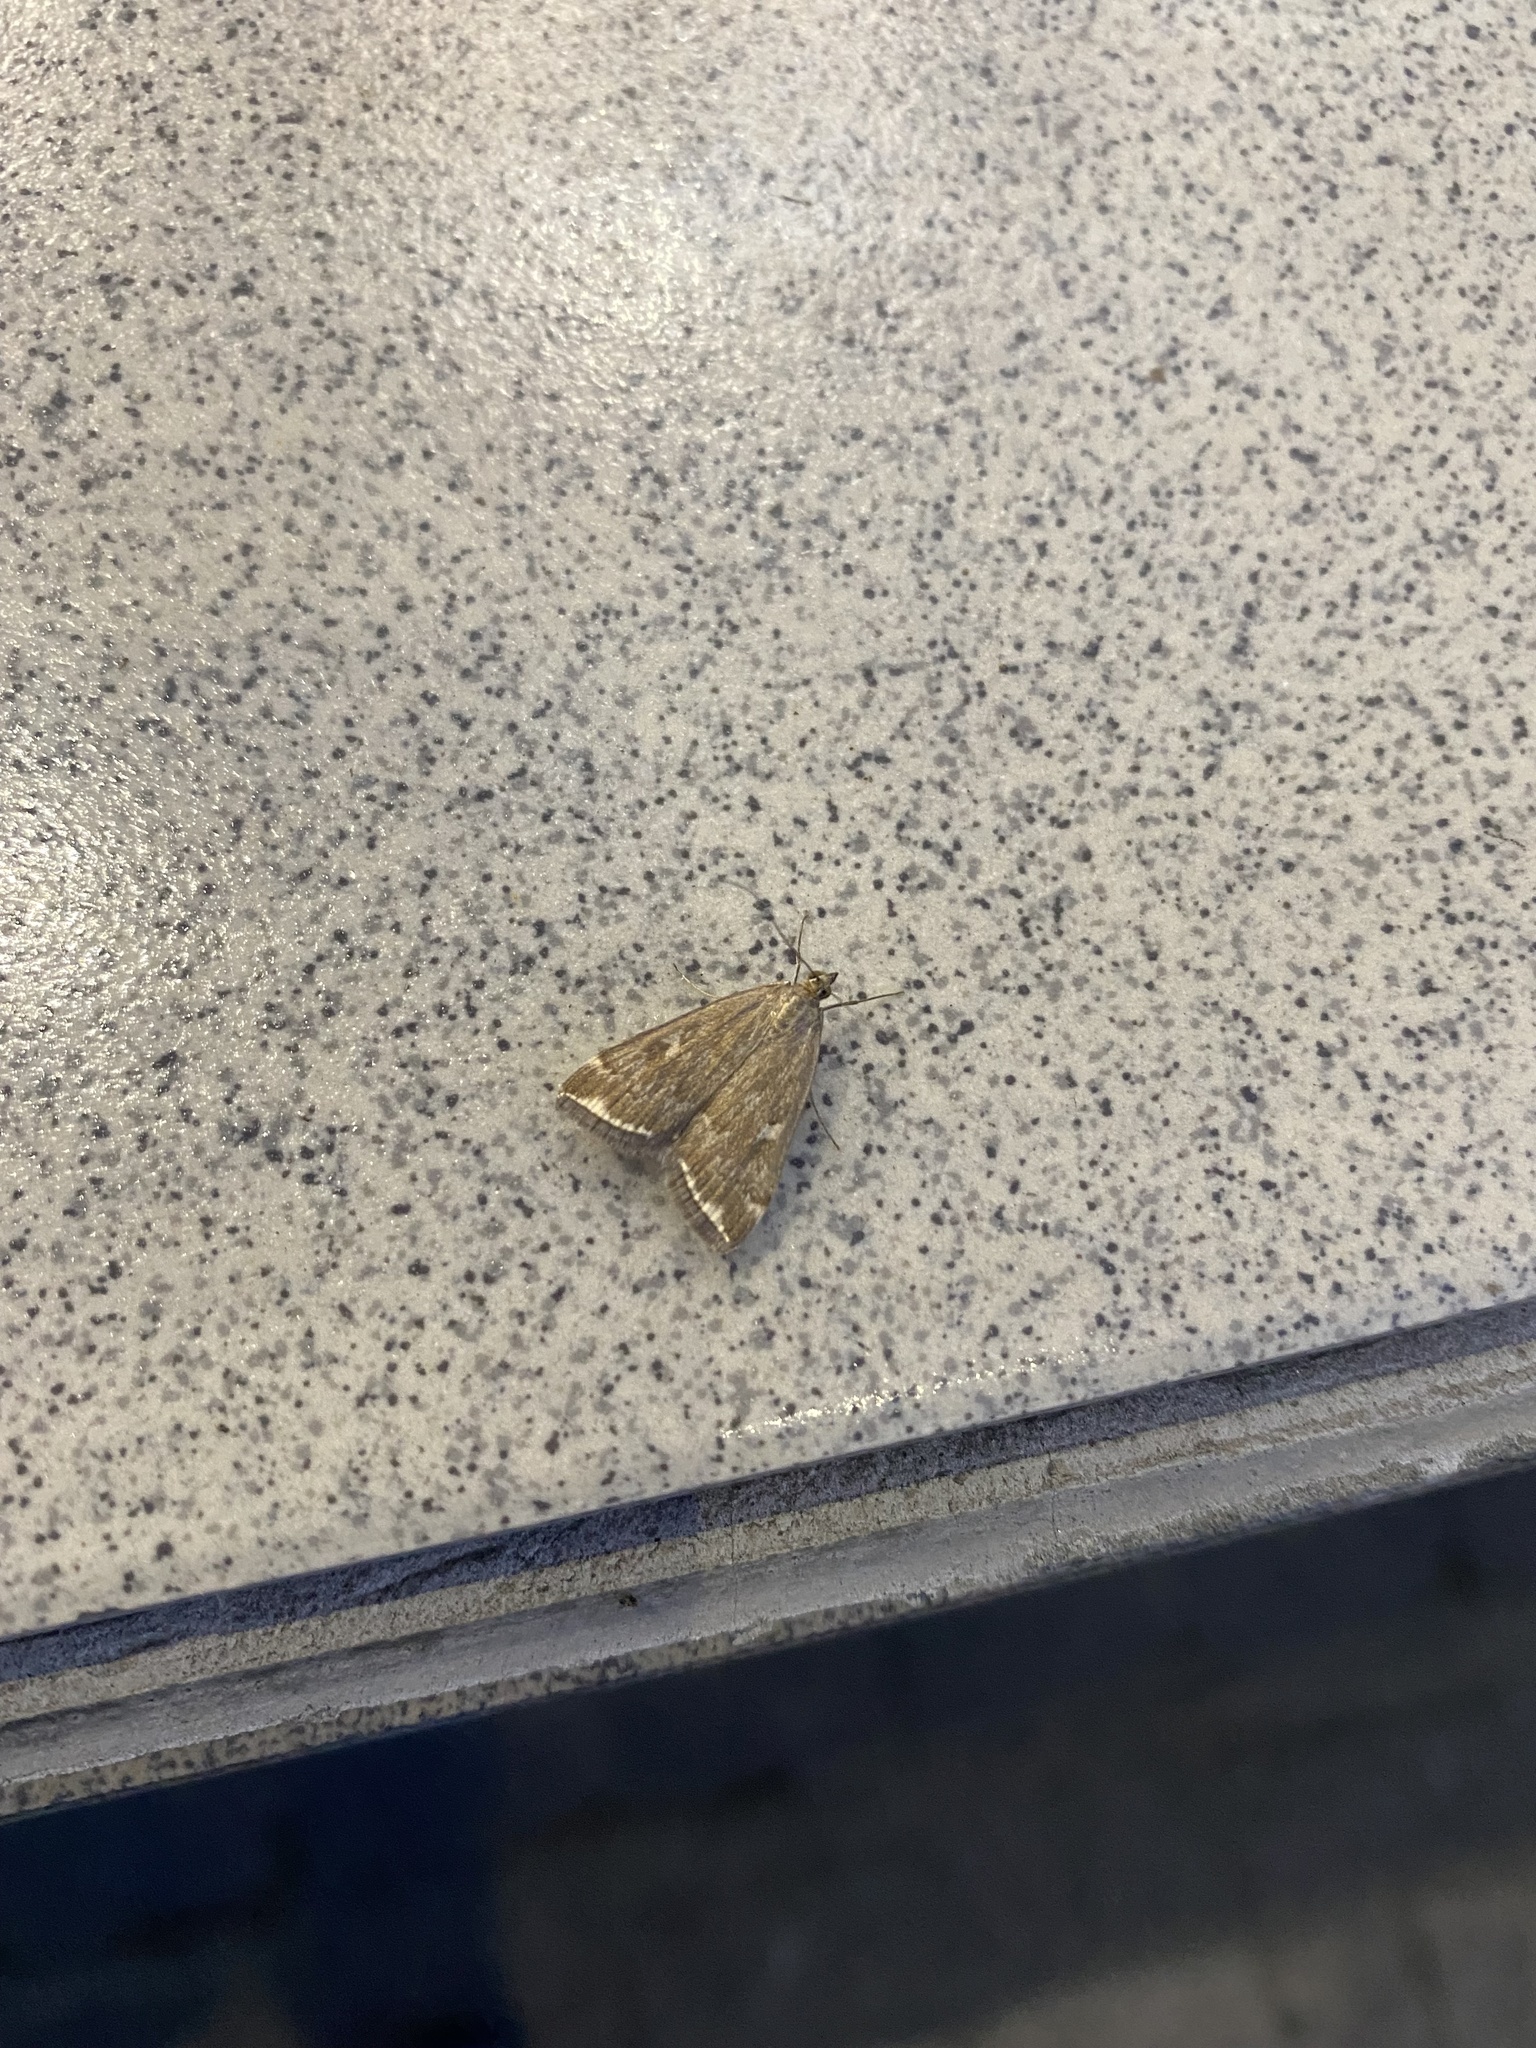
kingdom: Animalia
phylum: Arthropoda
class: Insecta
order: Lepidoptera
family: Crambidae
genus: Loxostege
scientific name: Loxostege sticticalis
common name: Crambid moth
